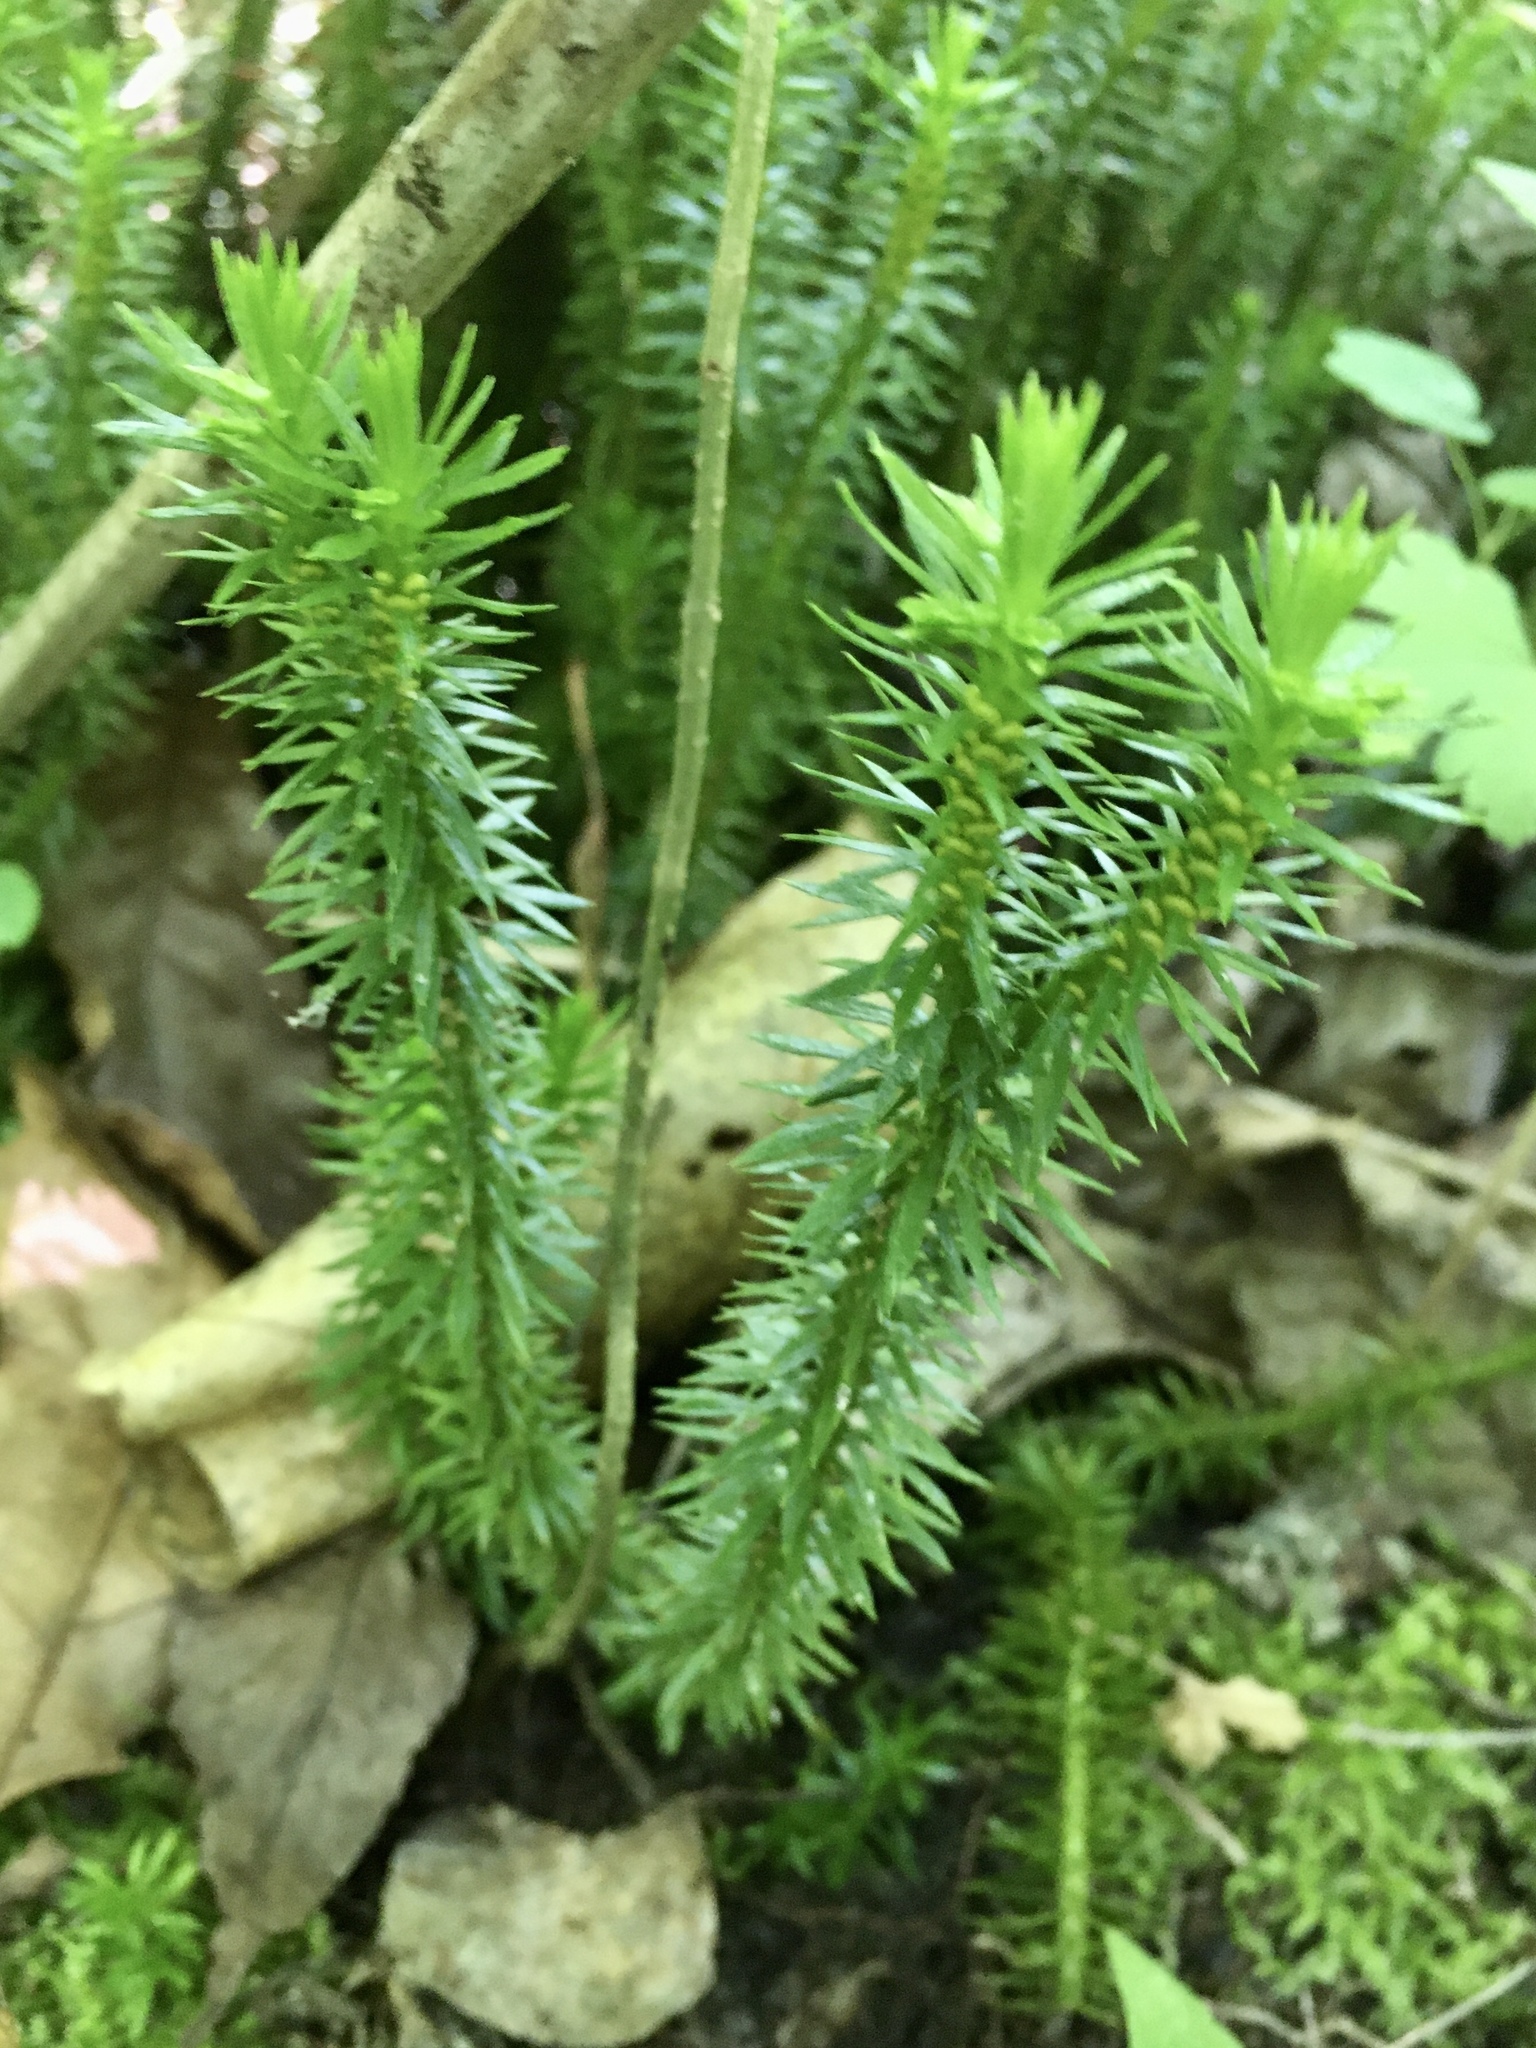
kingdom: Plantae
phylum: Tracheophyta
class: Lycopodiopsida
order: Lycopodiales
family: Lycopodiaceae
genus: Huperzia
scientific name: Huperzia lucidula
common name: Shining clubmoss
